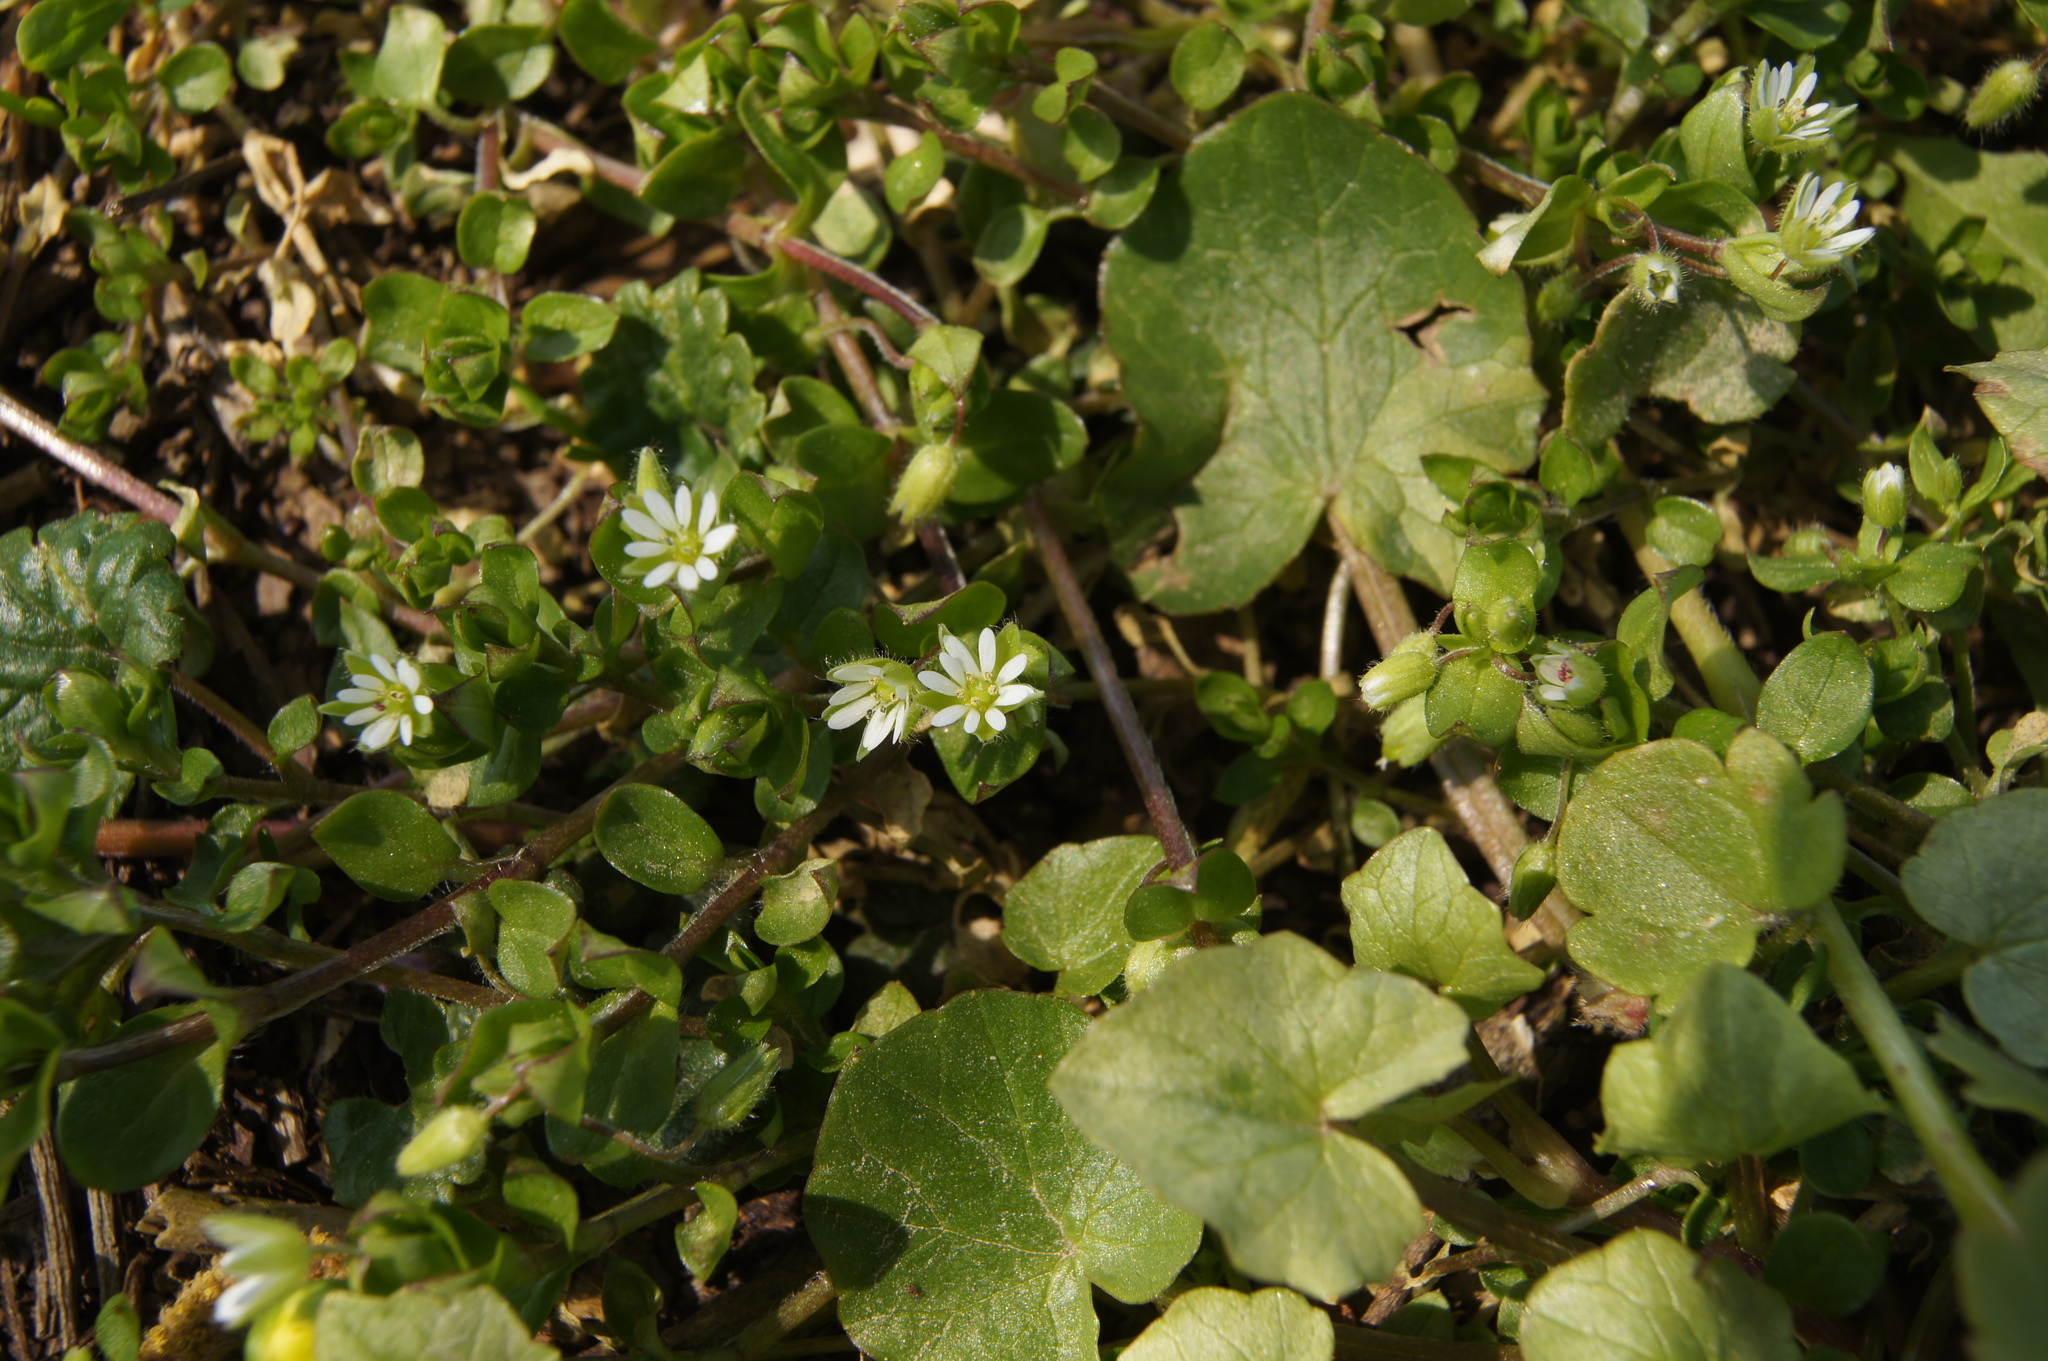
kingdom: Plantae
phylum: Tracheophyta
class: Magnoliopsida
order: Caryophyllales
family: Caryophyllaceae
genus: Stellaria
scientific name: Stellaria media
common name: Common chickweed
